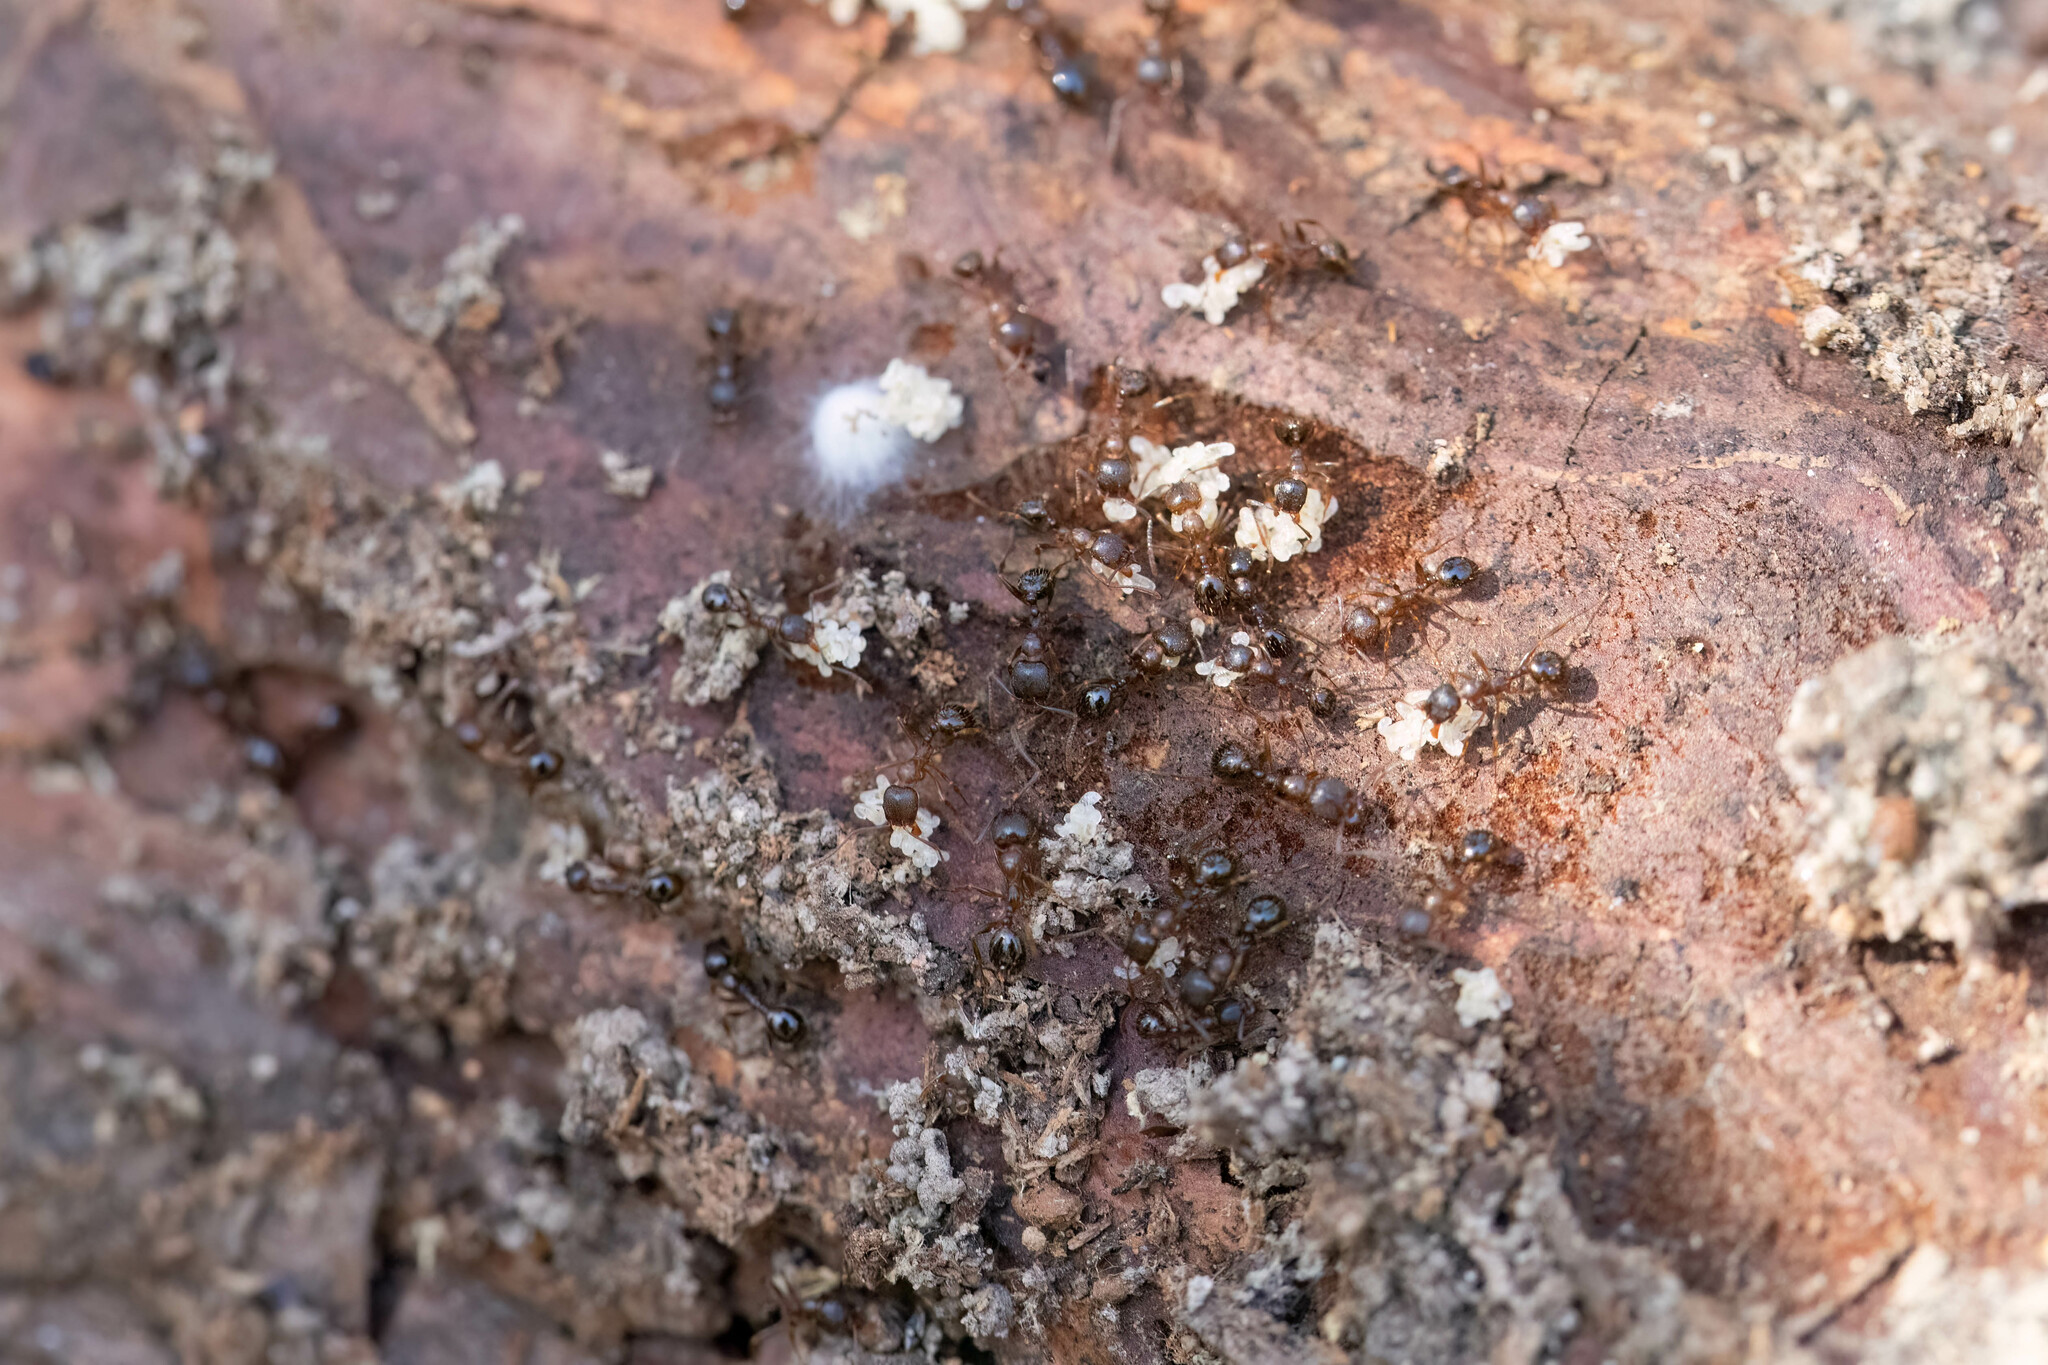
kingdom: Animalia
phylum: Arthropoda
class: Insecta
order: Hymenoptera
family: Formicidae
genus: Aphaenogaster
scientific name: Aphaenogaster occidentalis
